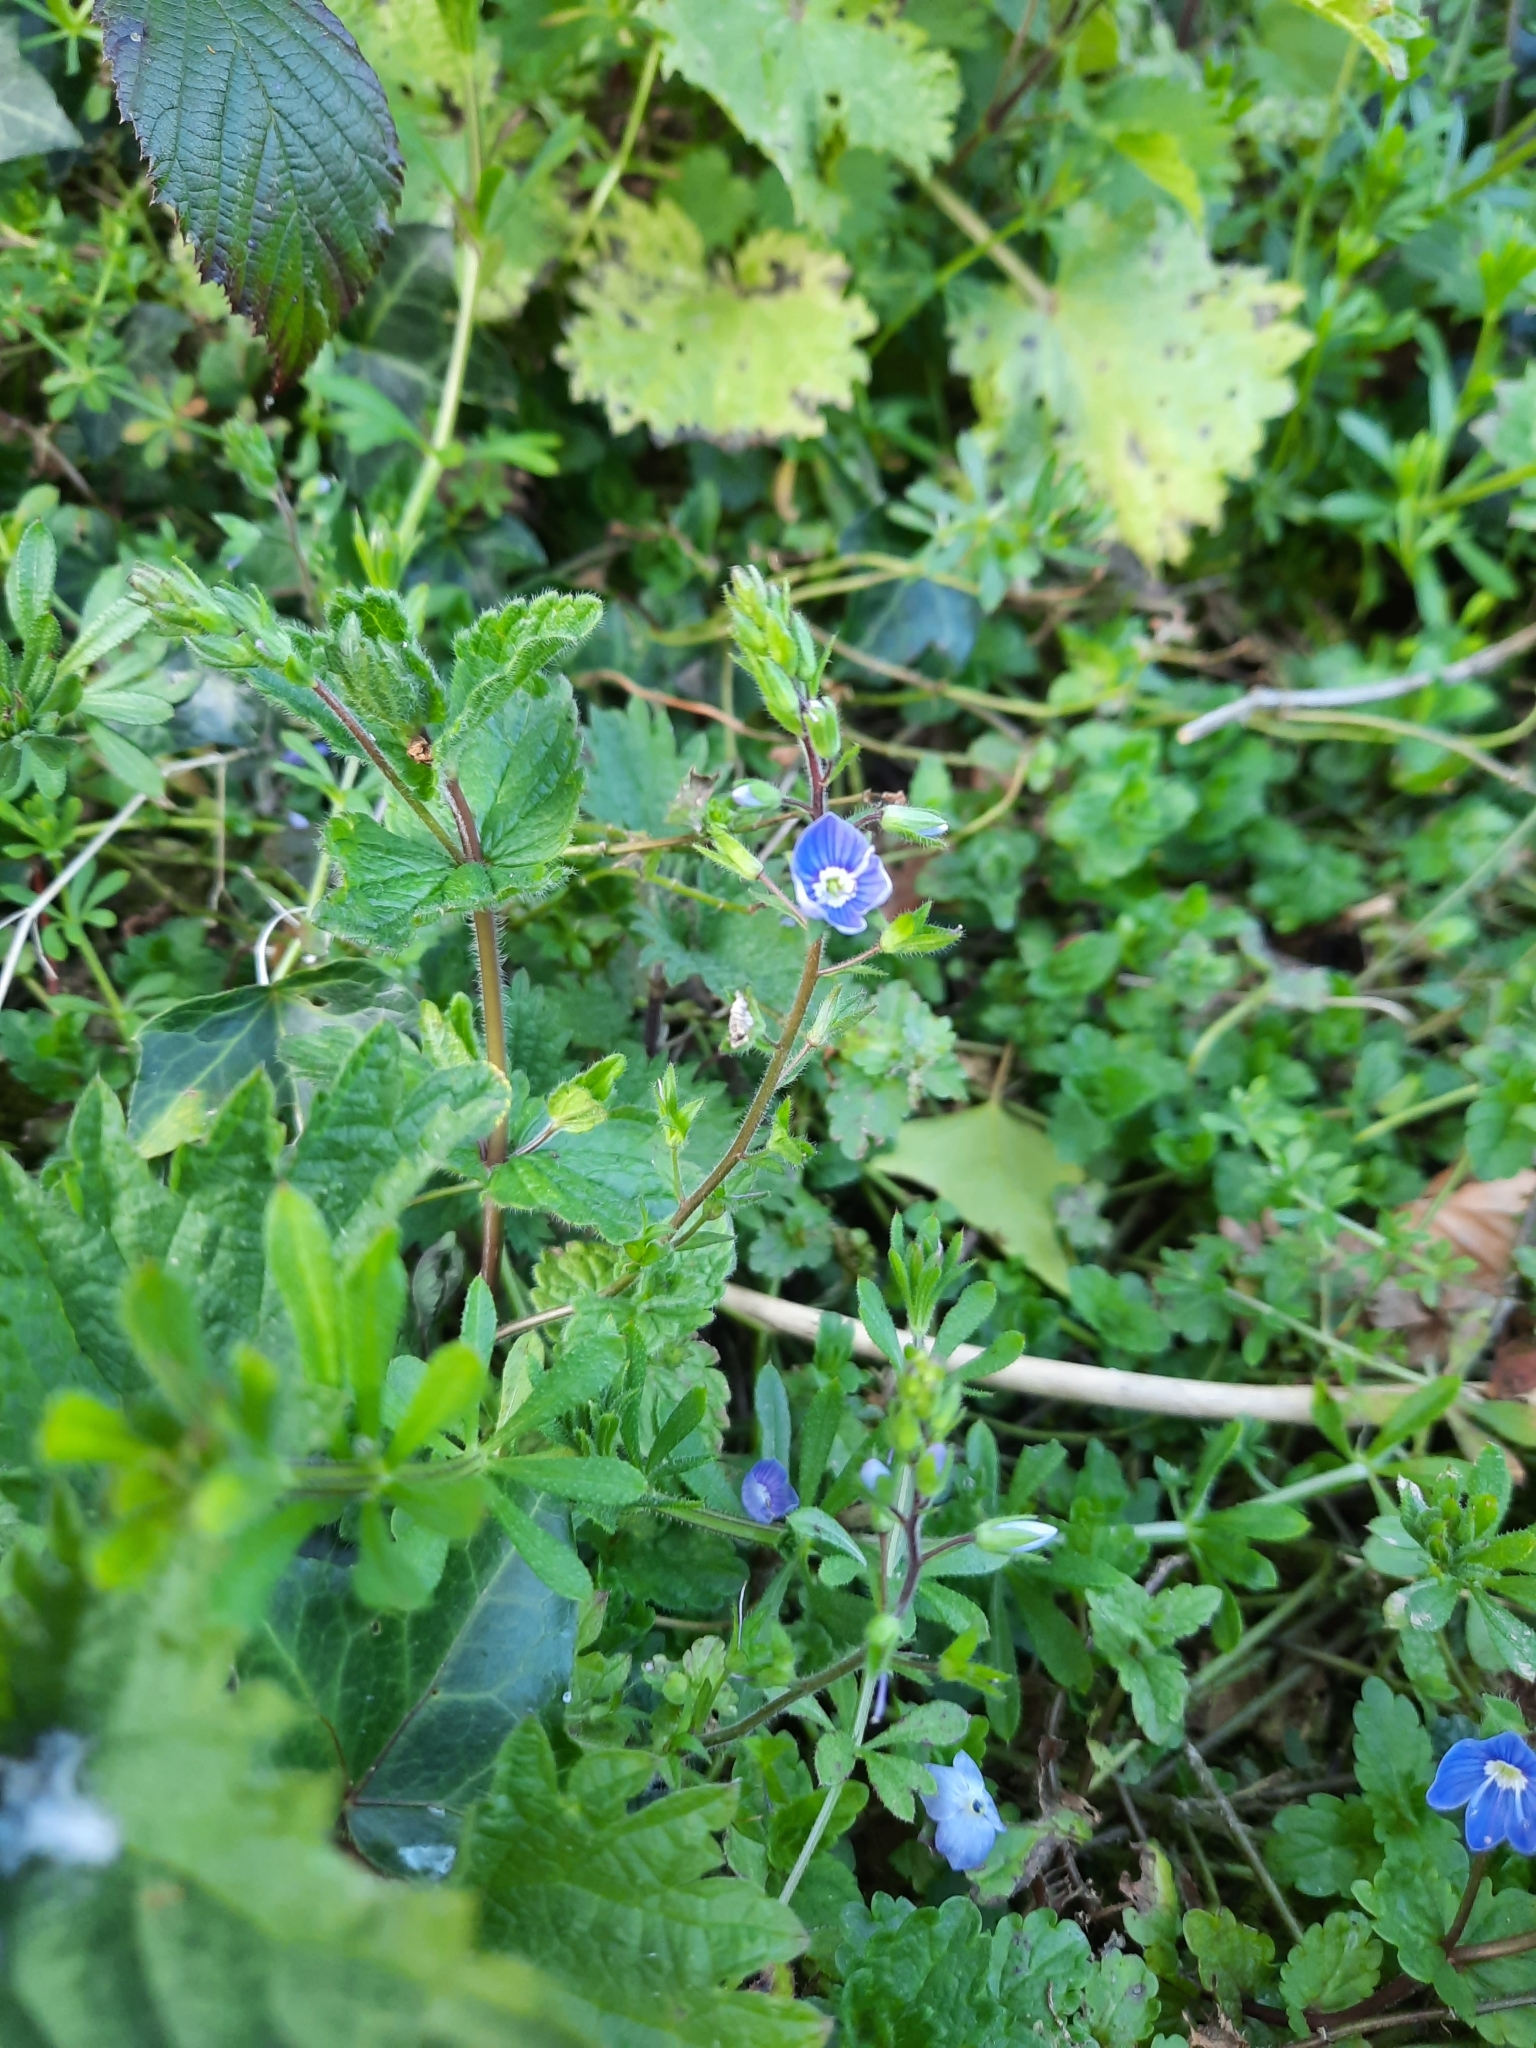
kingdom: Plantae
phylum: Tracheophyta
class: Magnoliopsida
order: Lamiales
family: Plantaginaceae
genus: Veronica
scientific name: Veronica chamaedrys
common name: Germander speedwell
